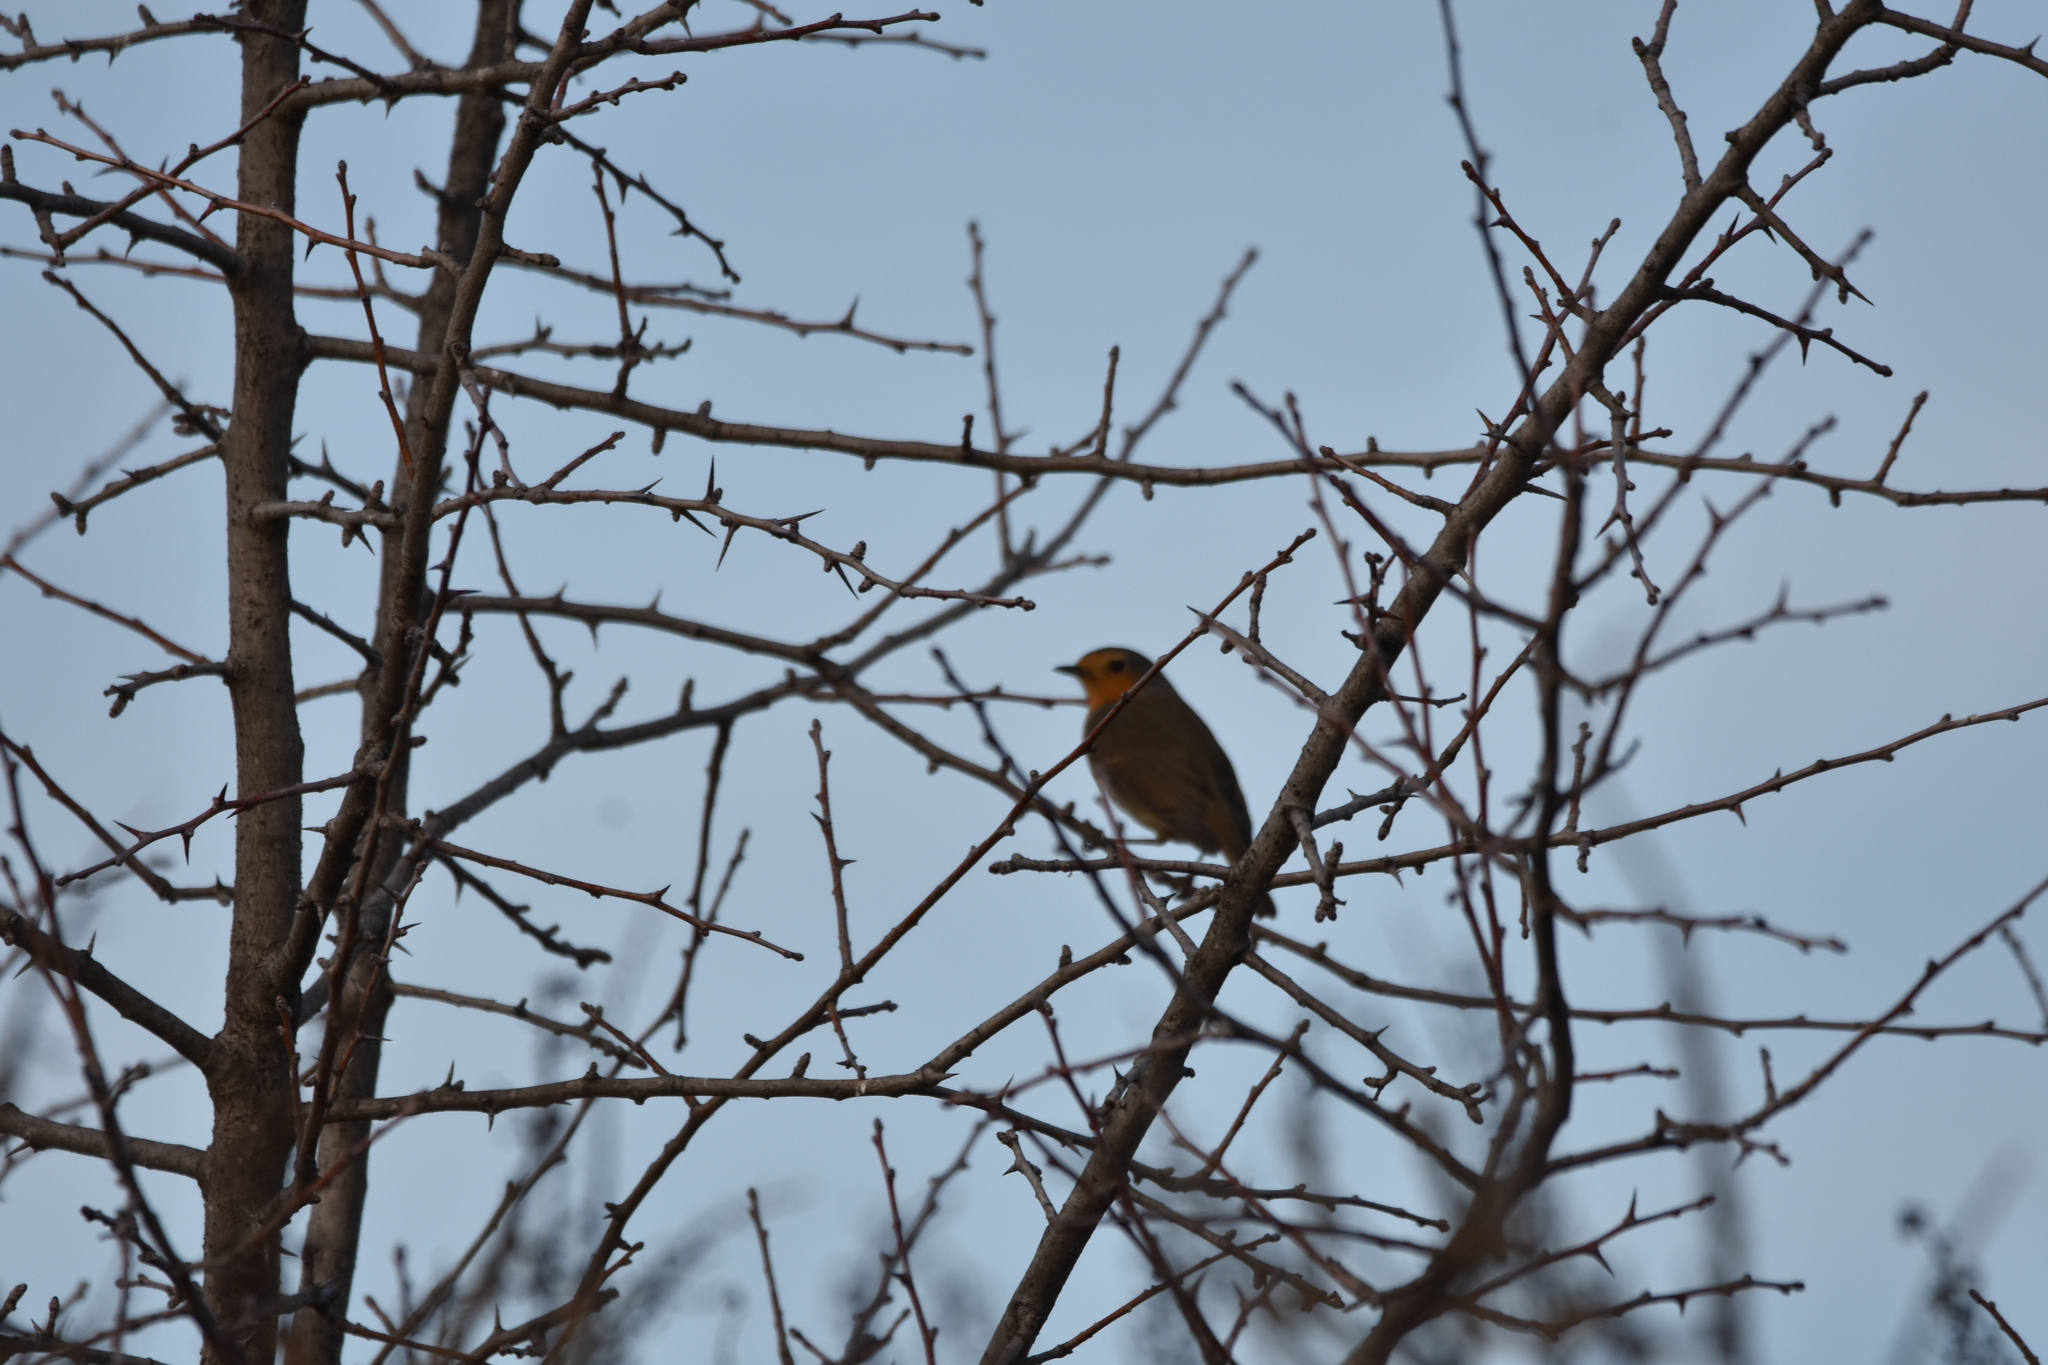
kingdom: Animalia
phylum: Chordata
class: Aves
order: Passeriformes
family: Muscicapidae
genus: Erithacus
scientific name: Erithacus rubecula
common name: European robin
